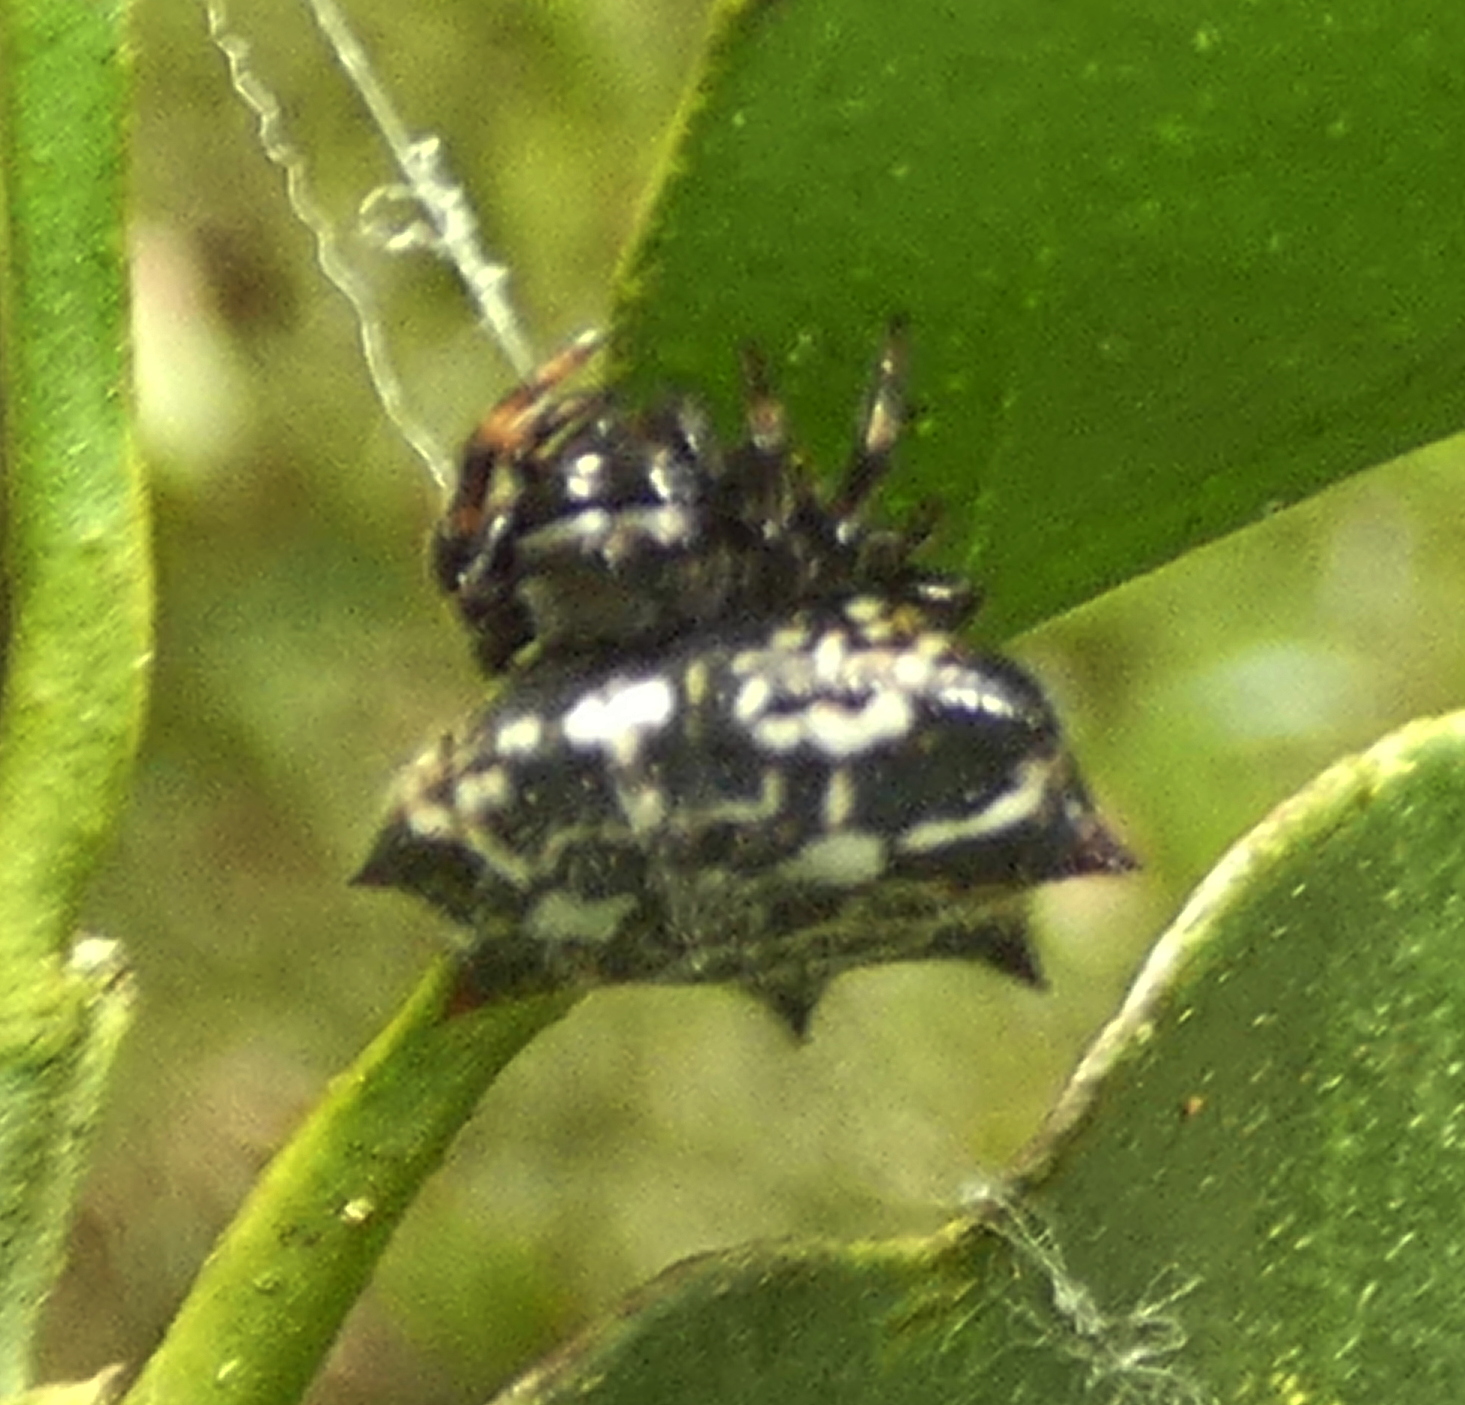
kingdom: Animalia
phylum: Arthropoda
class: Arachnida
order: Araneae
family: Araneidae
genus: Gasteracantha
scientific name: Gasteracantha cancriformis
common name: Orb weavers
